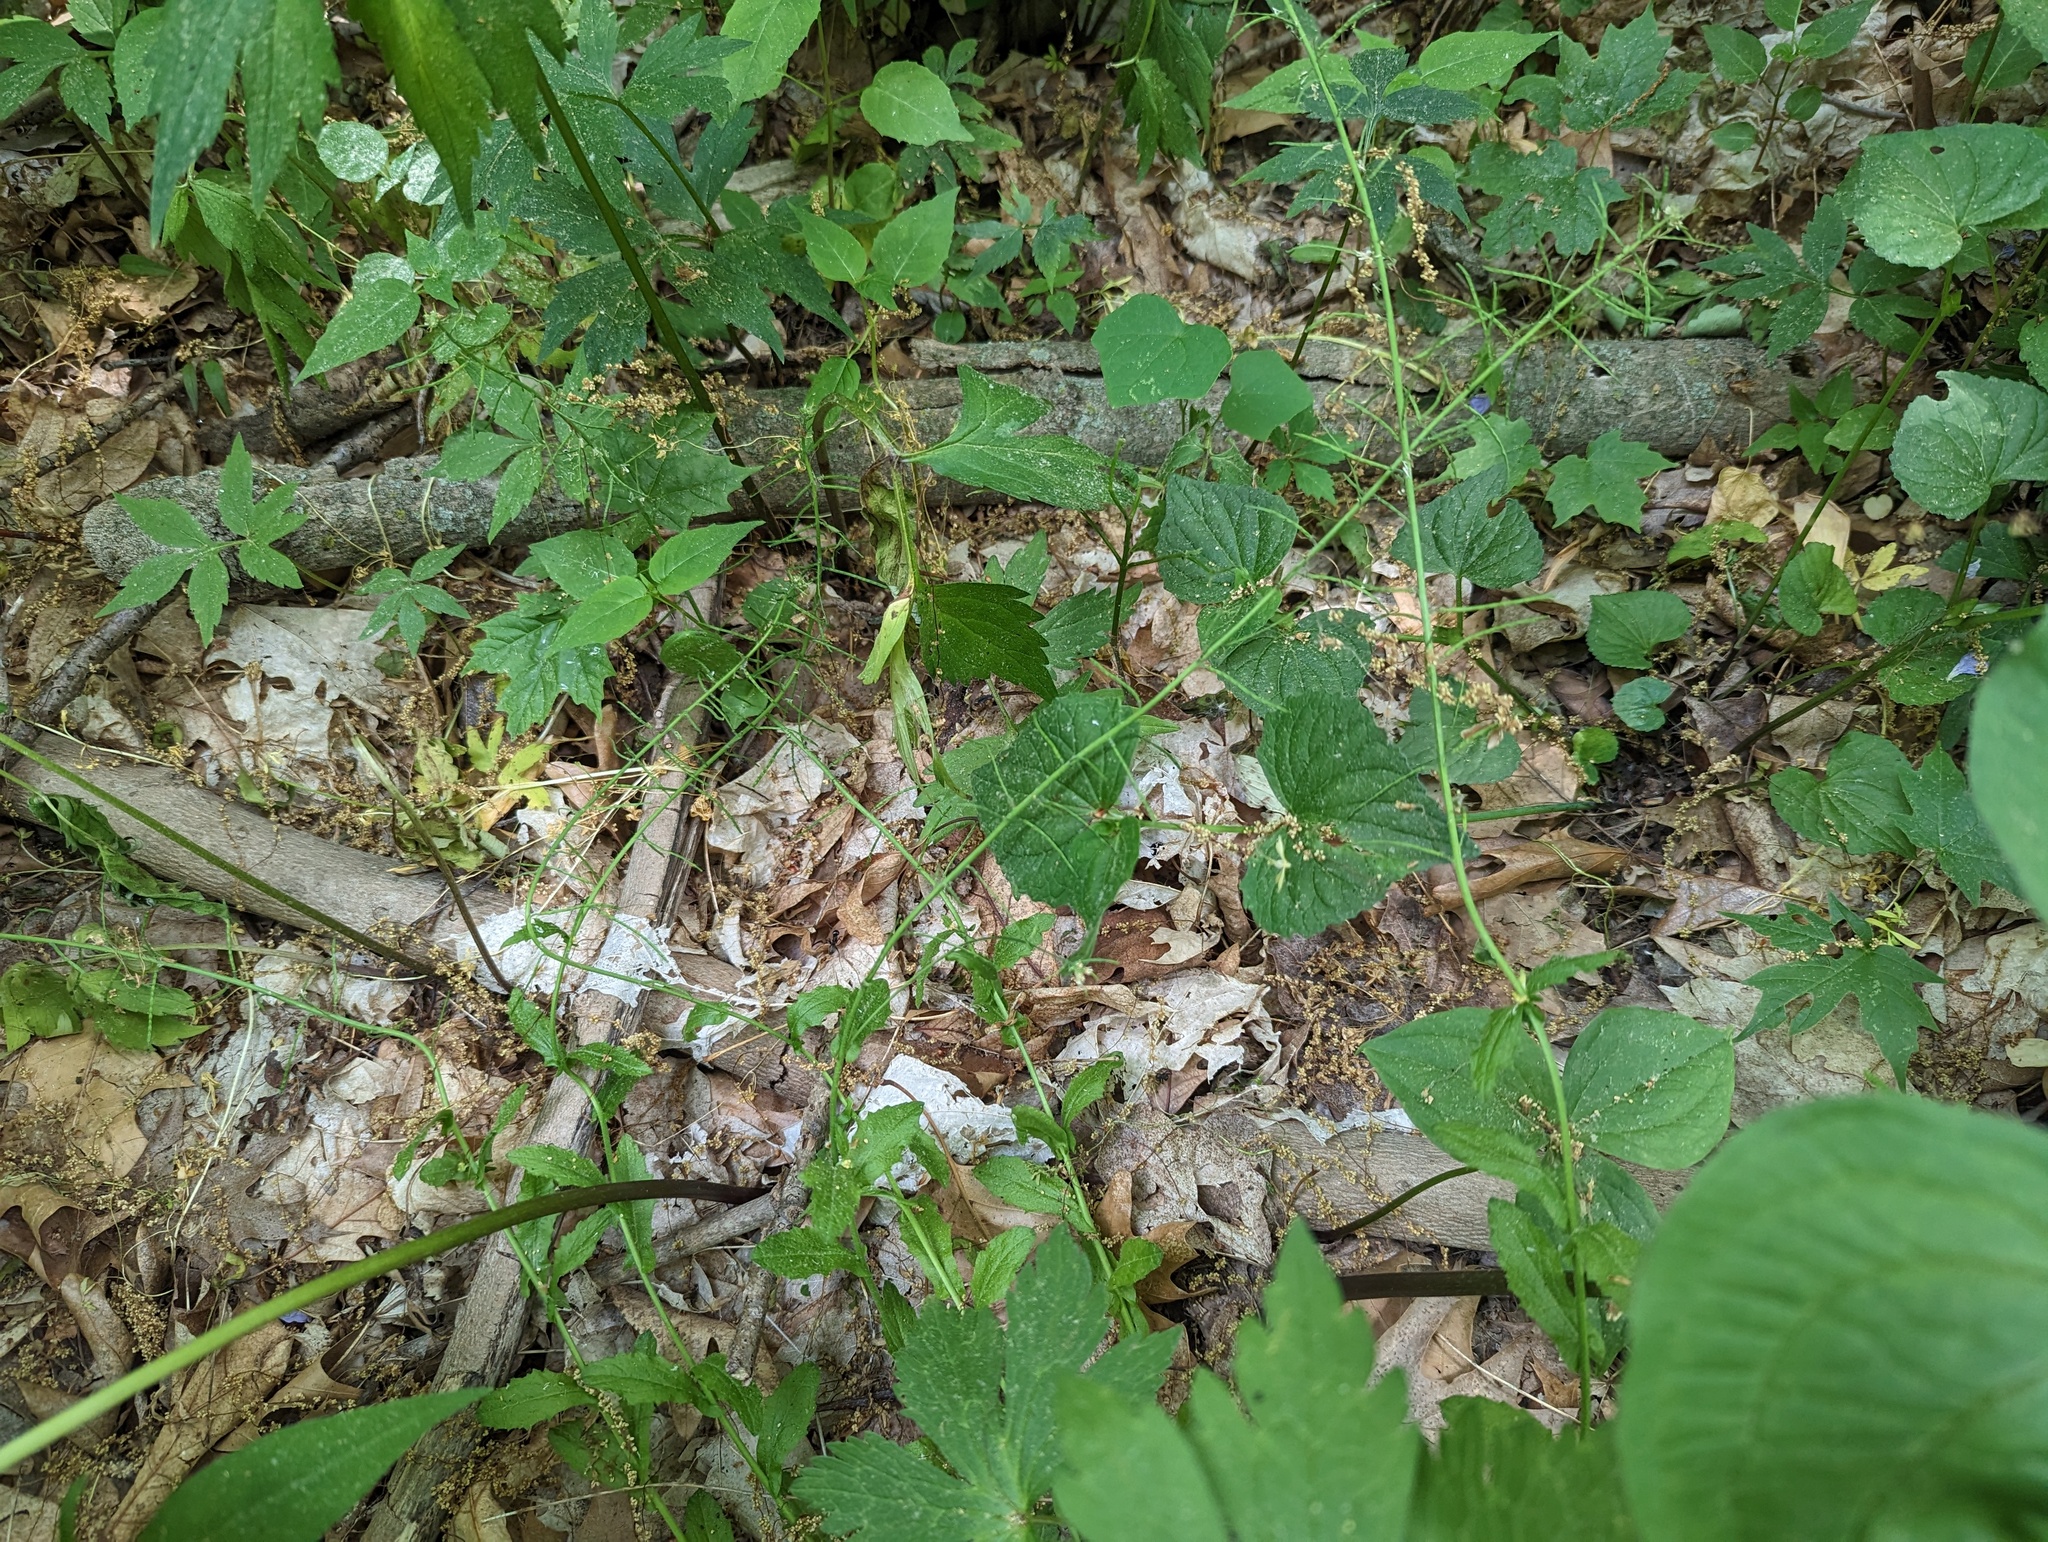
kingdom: Plantae
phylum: Tracheophyta
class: Magnoliopsida
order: Brassicales
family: Brassicaceae
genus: Borodinia
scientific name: Borodinia dentata
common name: Short's rockcress
